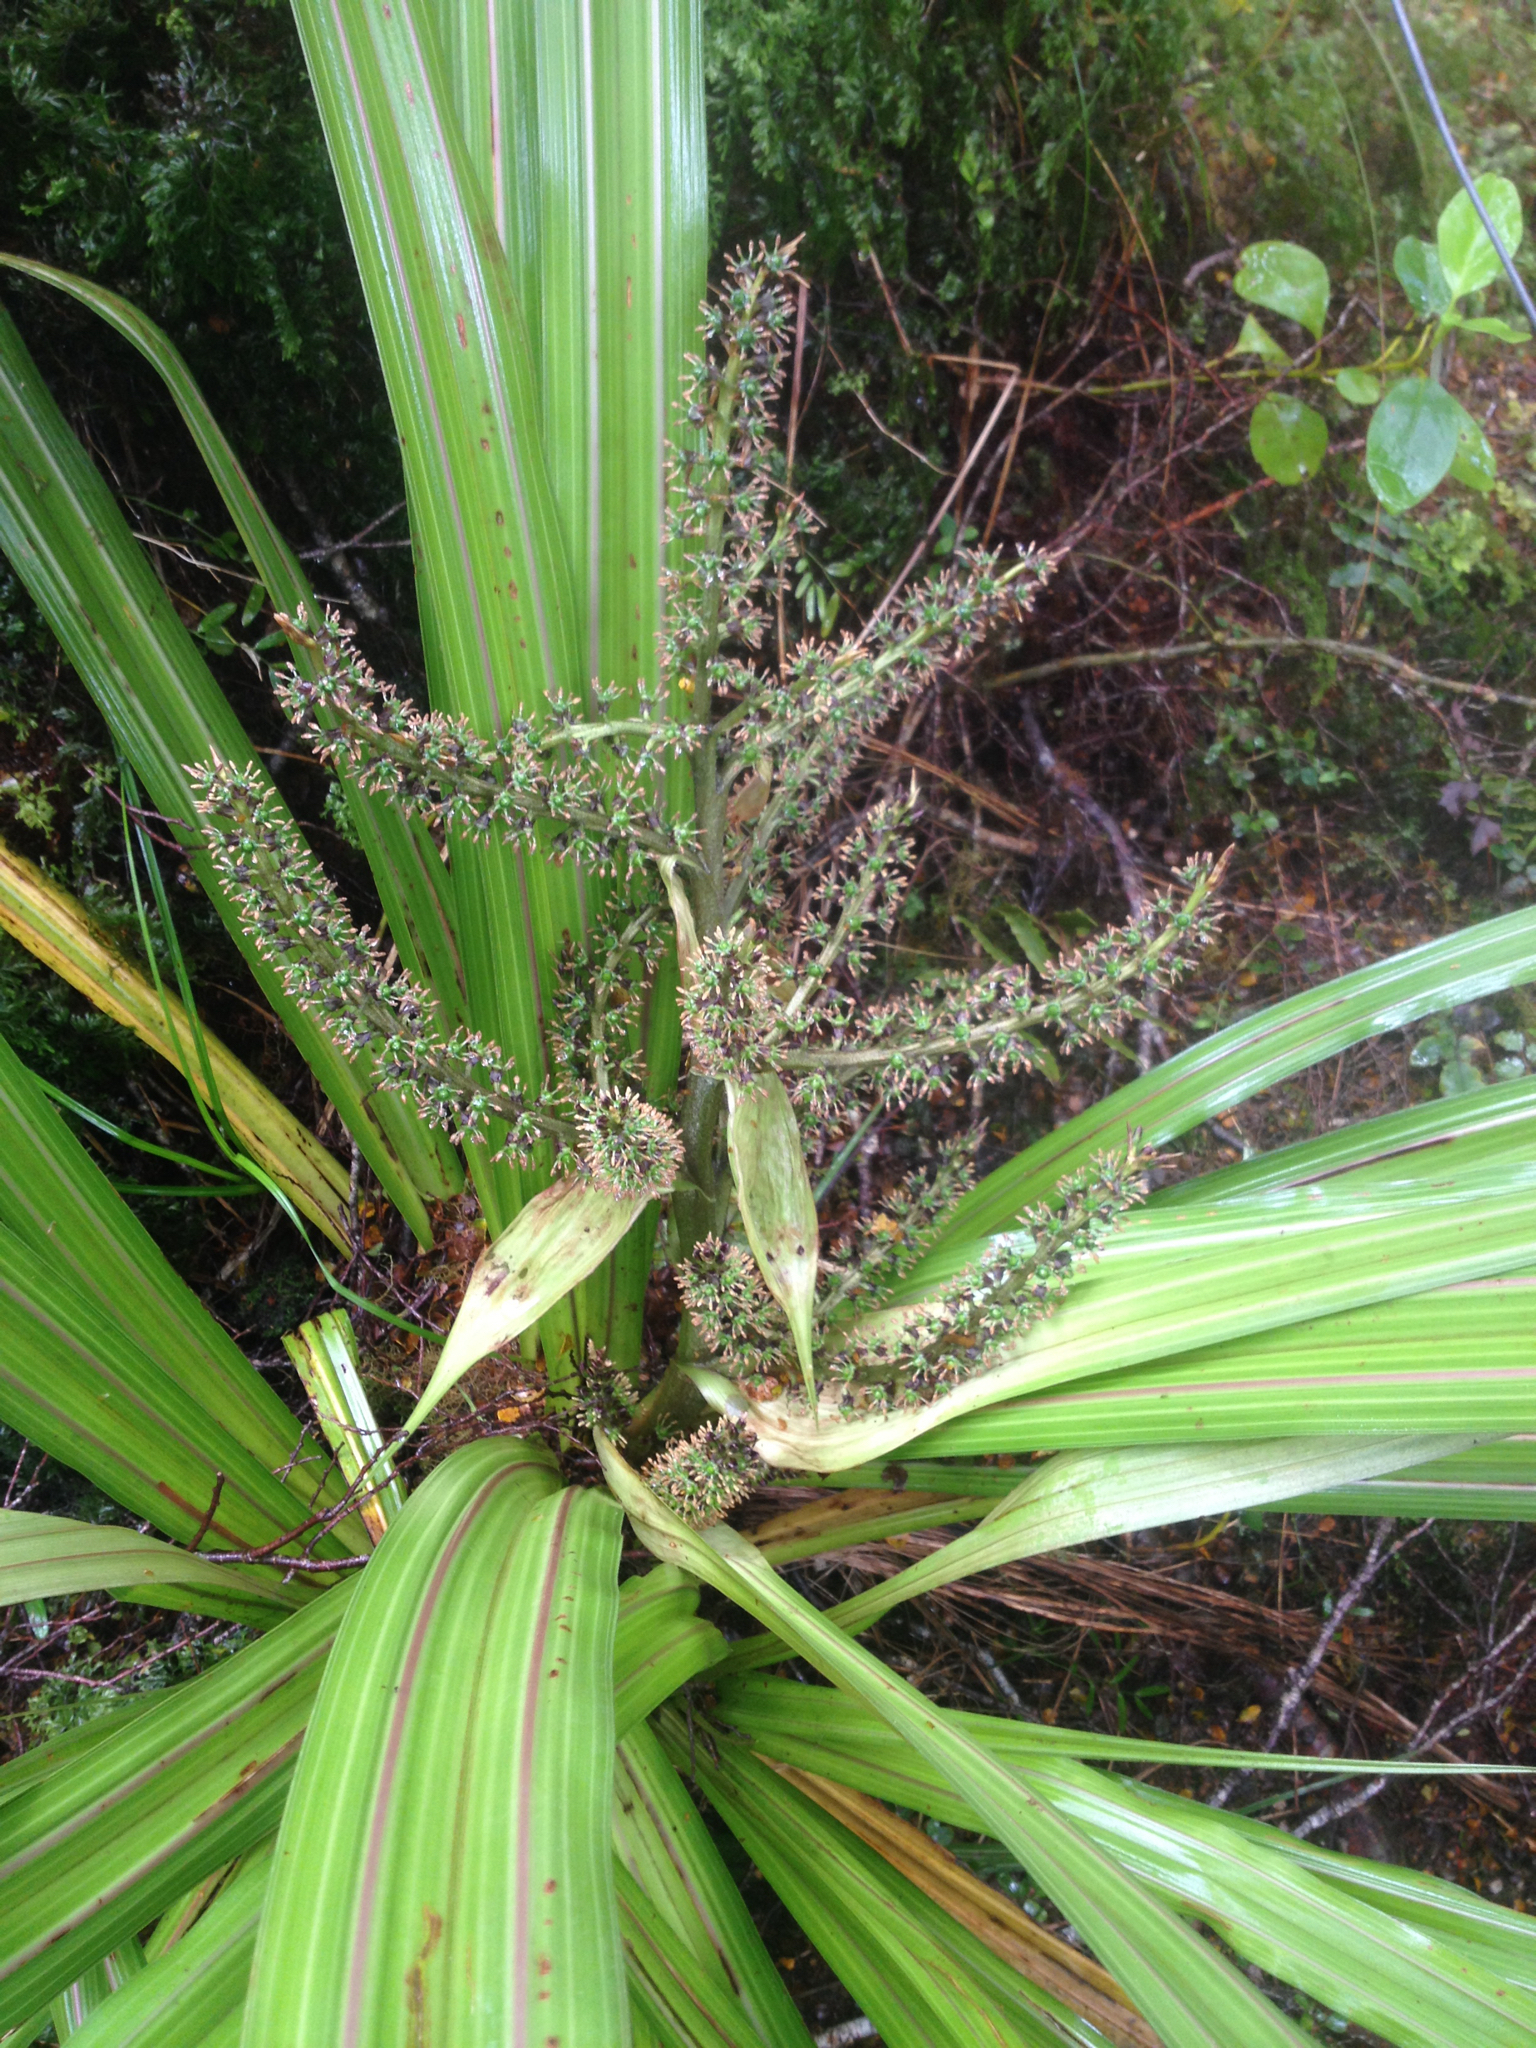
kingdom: Plantae
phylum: Tracheophyta
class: Liliopsida
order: Asparagales
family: Asteliaceae
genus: Astelia
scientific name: Astelia fragrans
